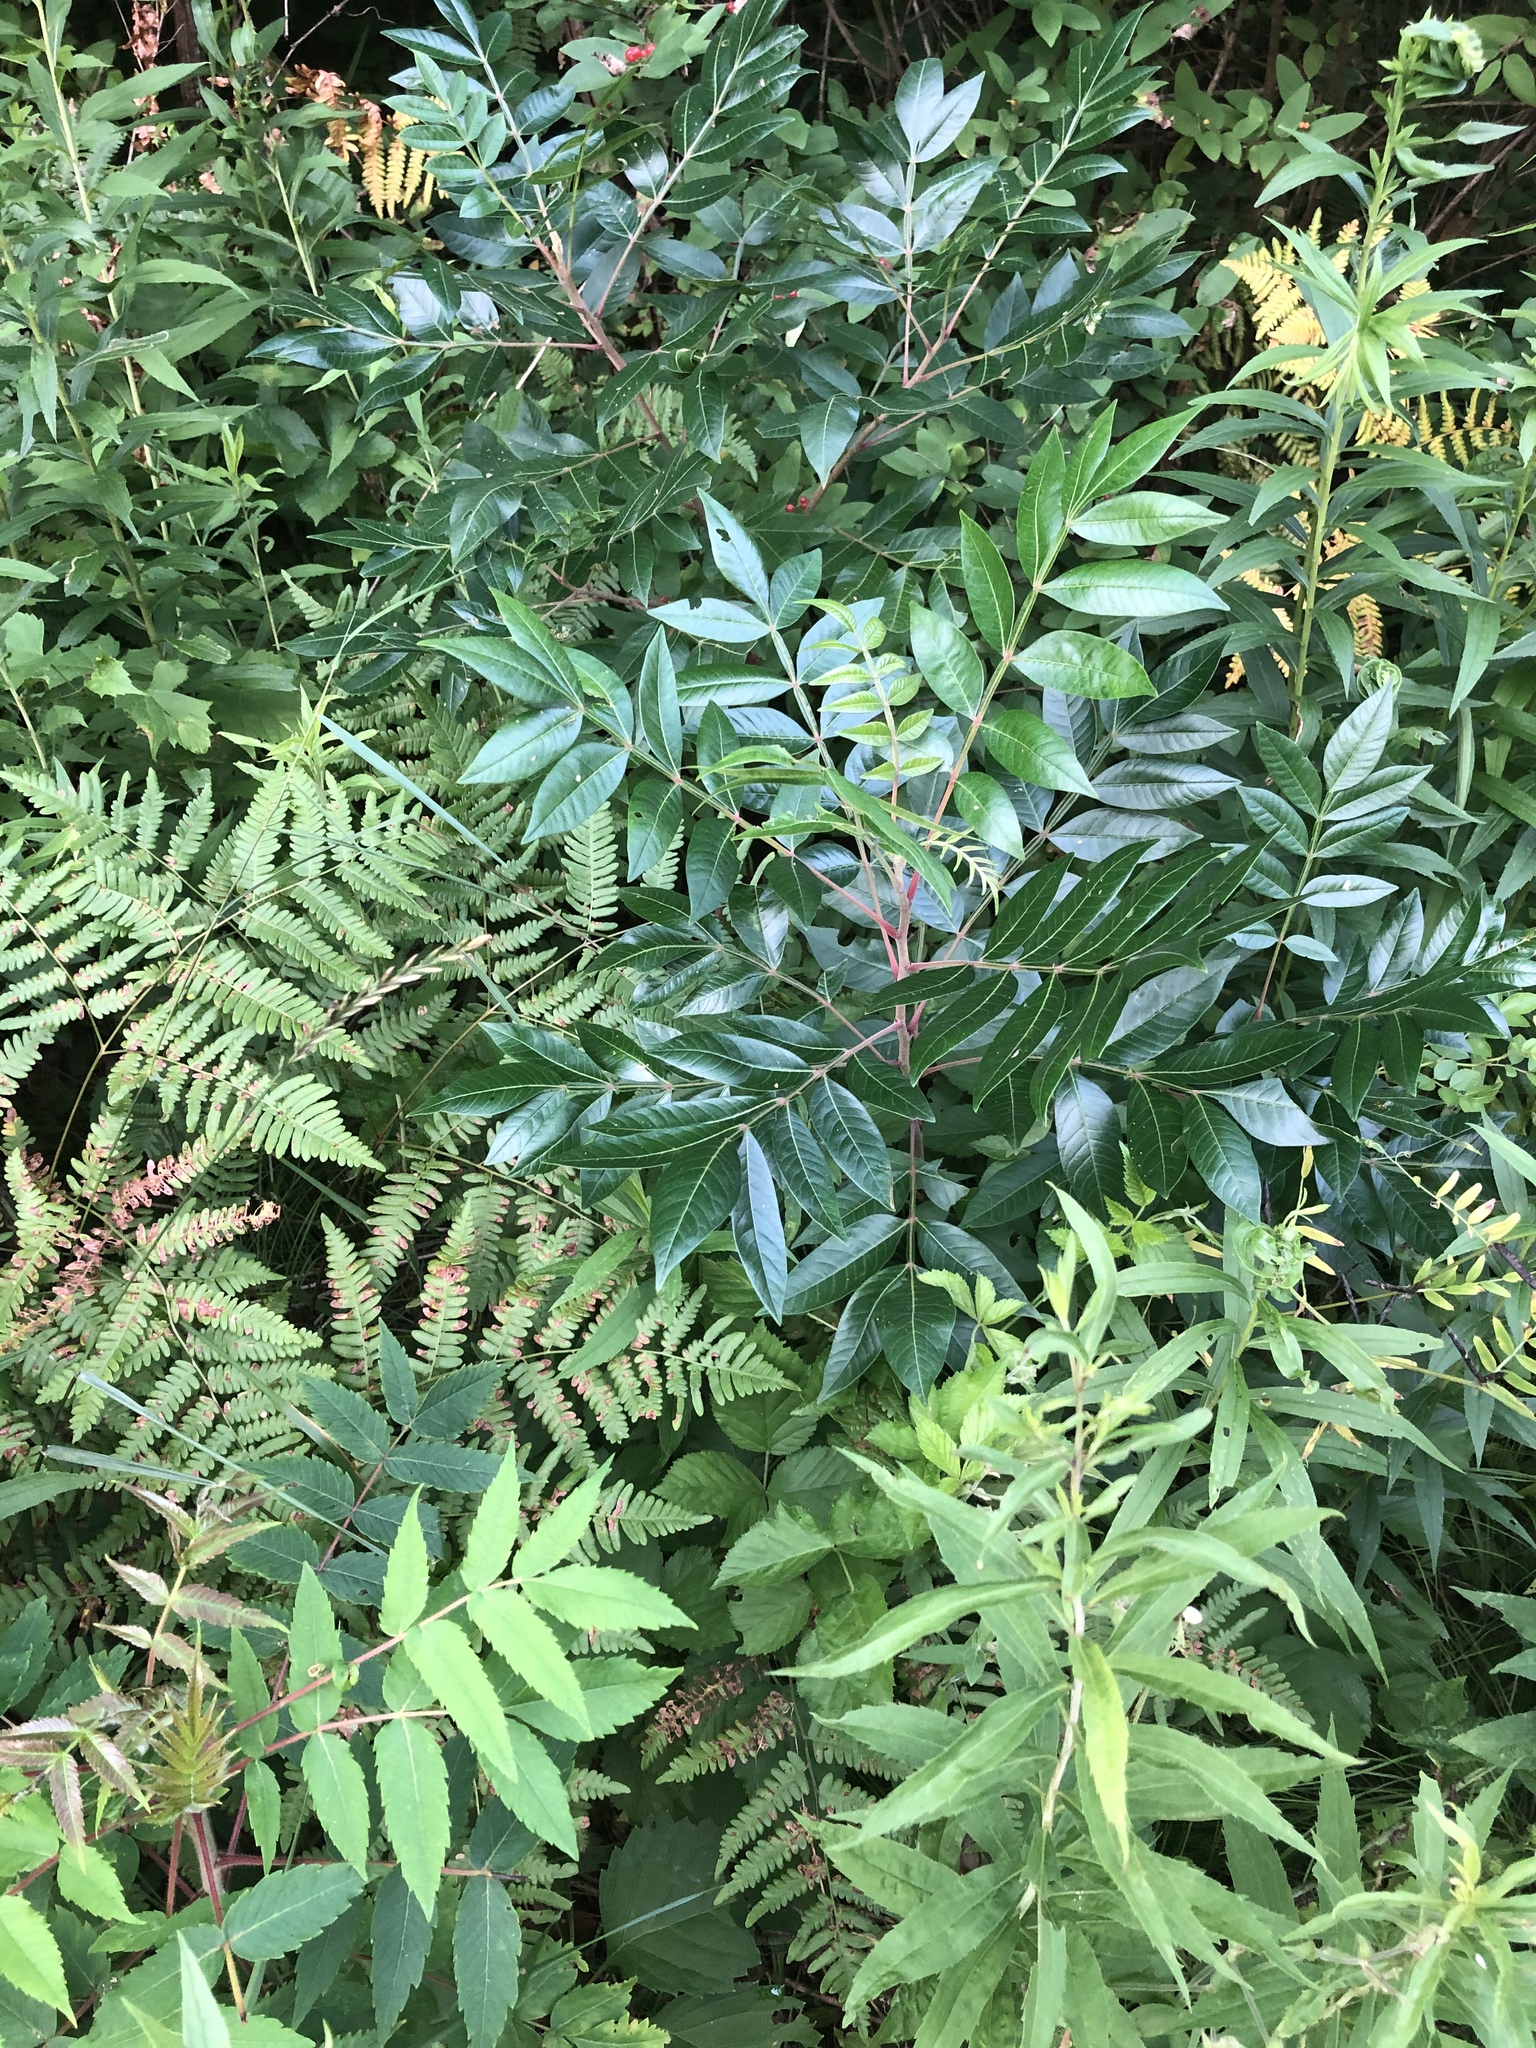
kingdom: Plantae
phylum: Tracheophyta
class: Magnoliopsida
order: Sapindales
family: Anacardiaceae
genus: Rhus
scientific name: Rhus copallina
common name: Shining sumac
